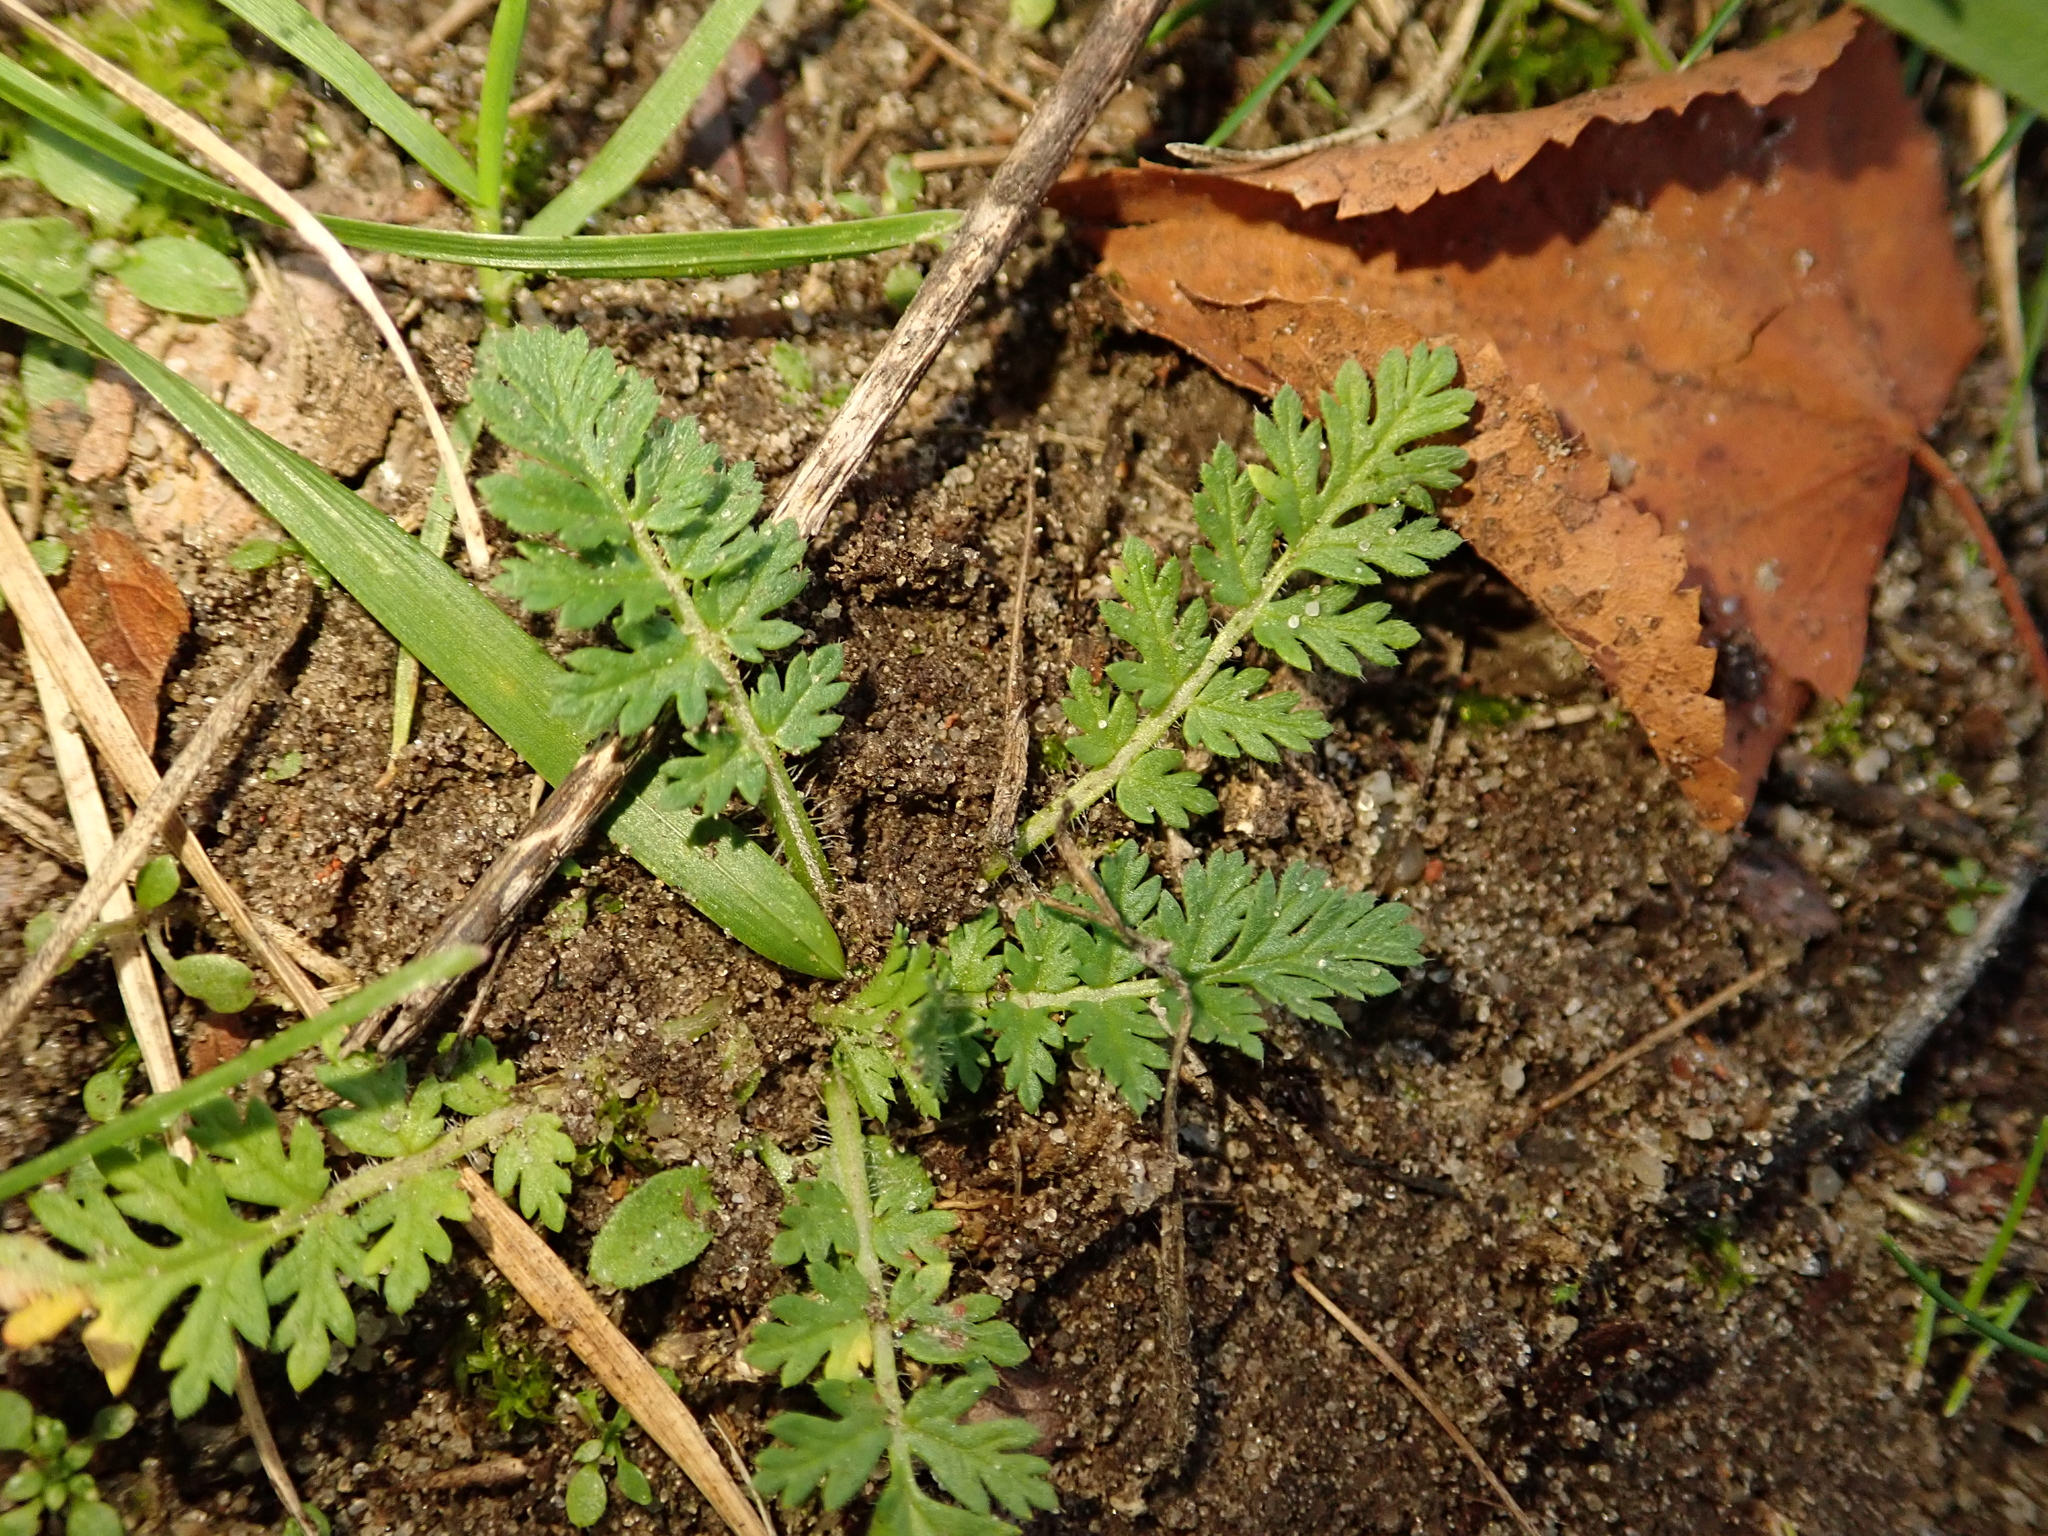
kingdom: Plantae
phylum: Tracheophyta
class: Magnoliopsida
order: Geraniales
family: Geraniaceae
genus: Erodium
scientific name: Erodium cicutarium
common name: Common stork's-bill
